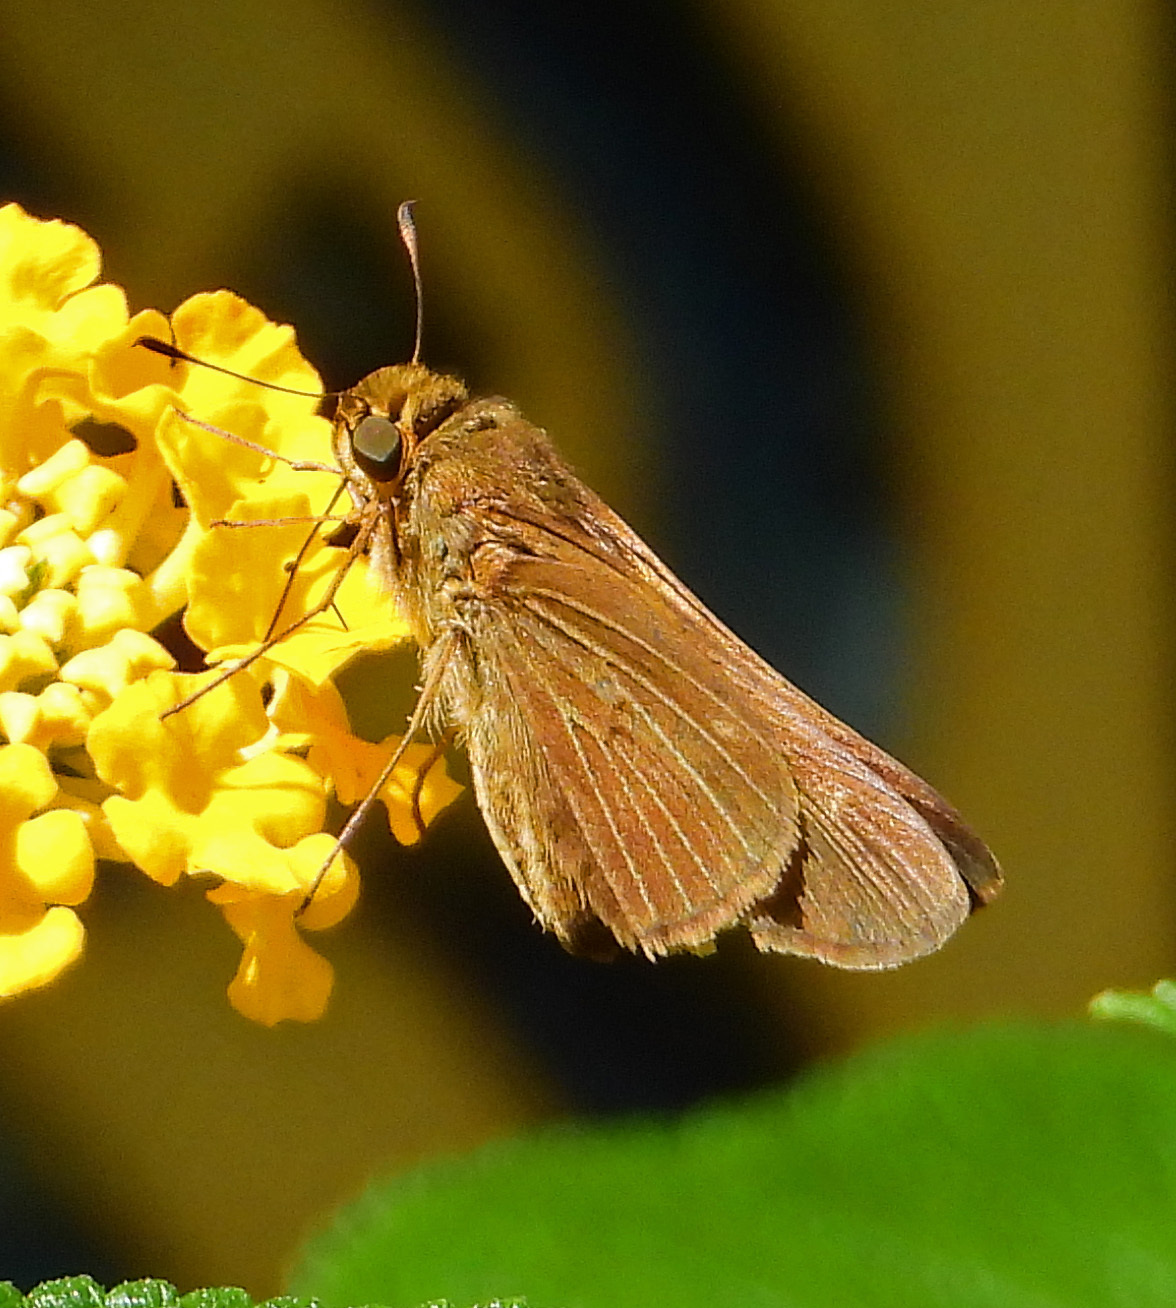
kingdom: Animalia
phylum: Arthropoda
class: Insecta
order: Lepidoptera
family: Hesperiidae
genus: Panoquina
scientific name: Panoquina ocola
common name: Ocola skipper
